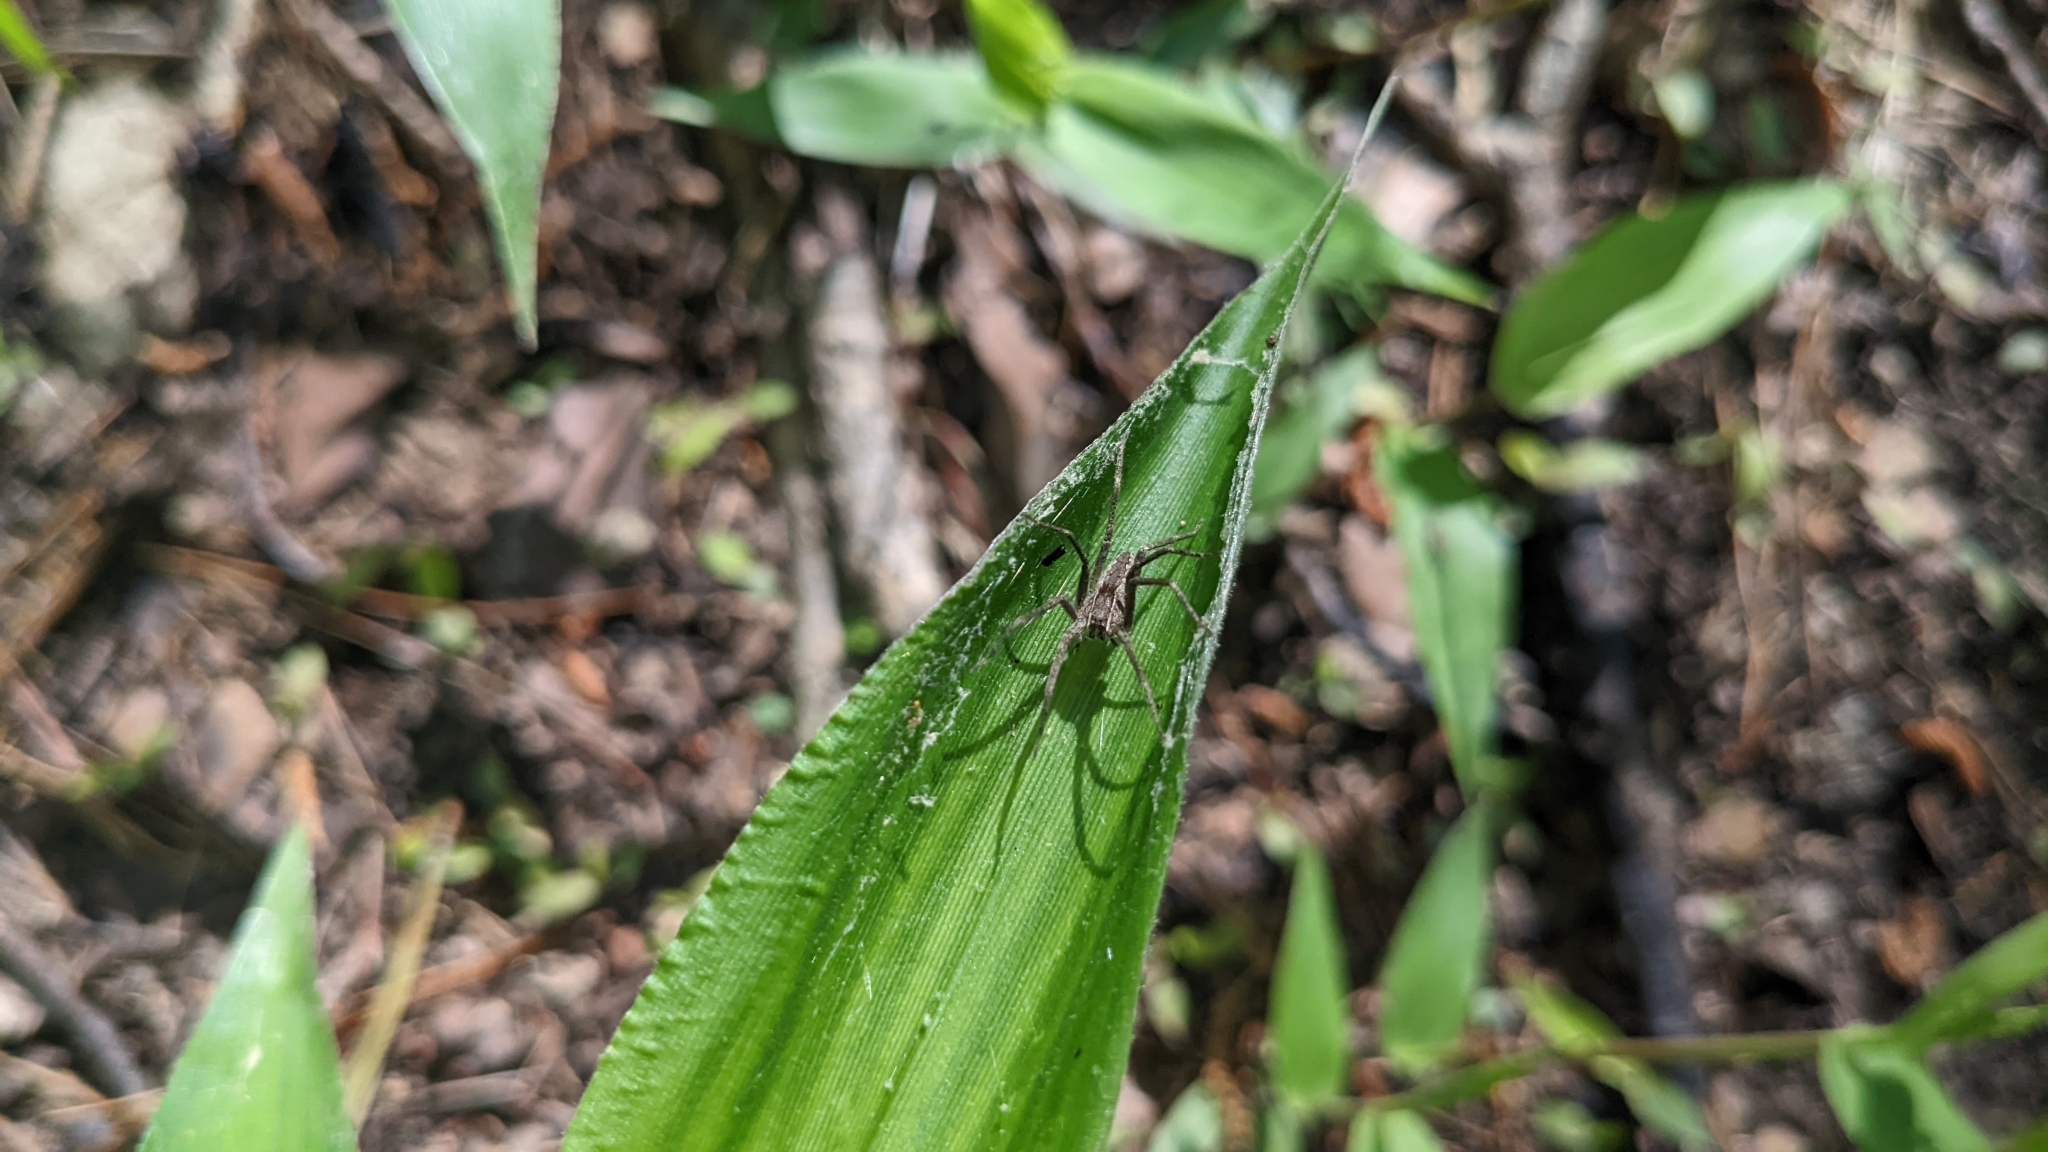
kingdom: Animalia
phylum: Arthropoda
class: Arachnida
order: Araneae
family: Pisauridae
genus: Pisaurina
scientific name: Pisaurina mira
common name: American nursery web spider
